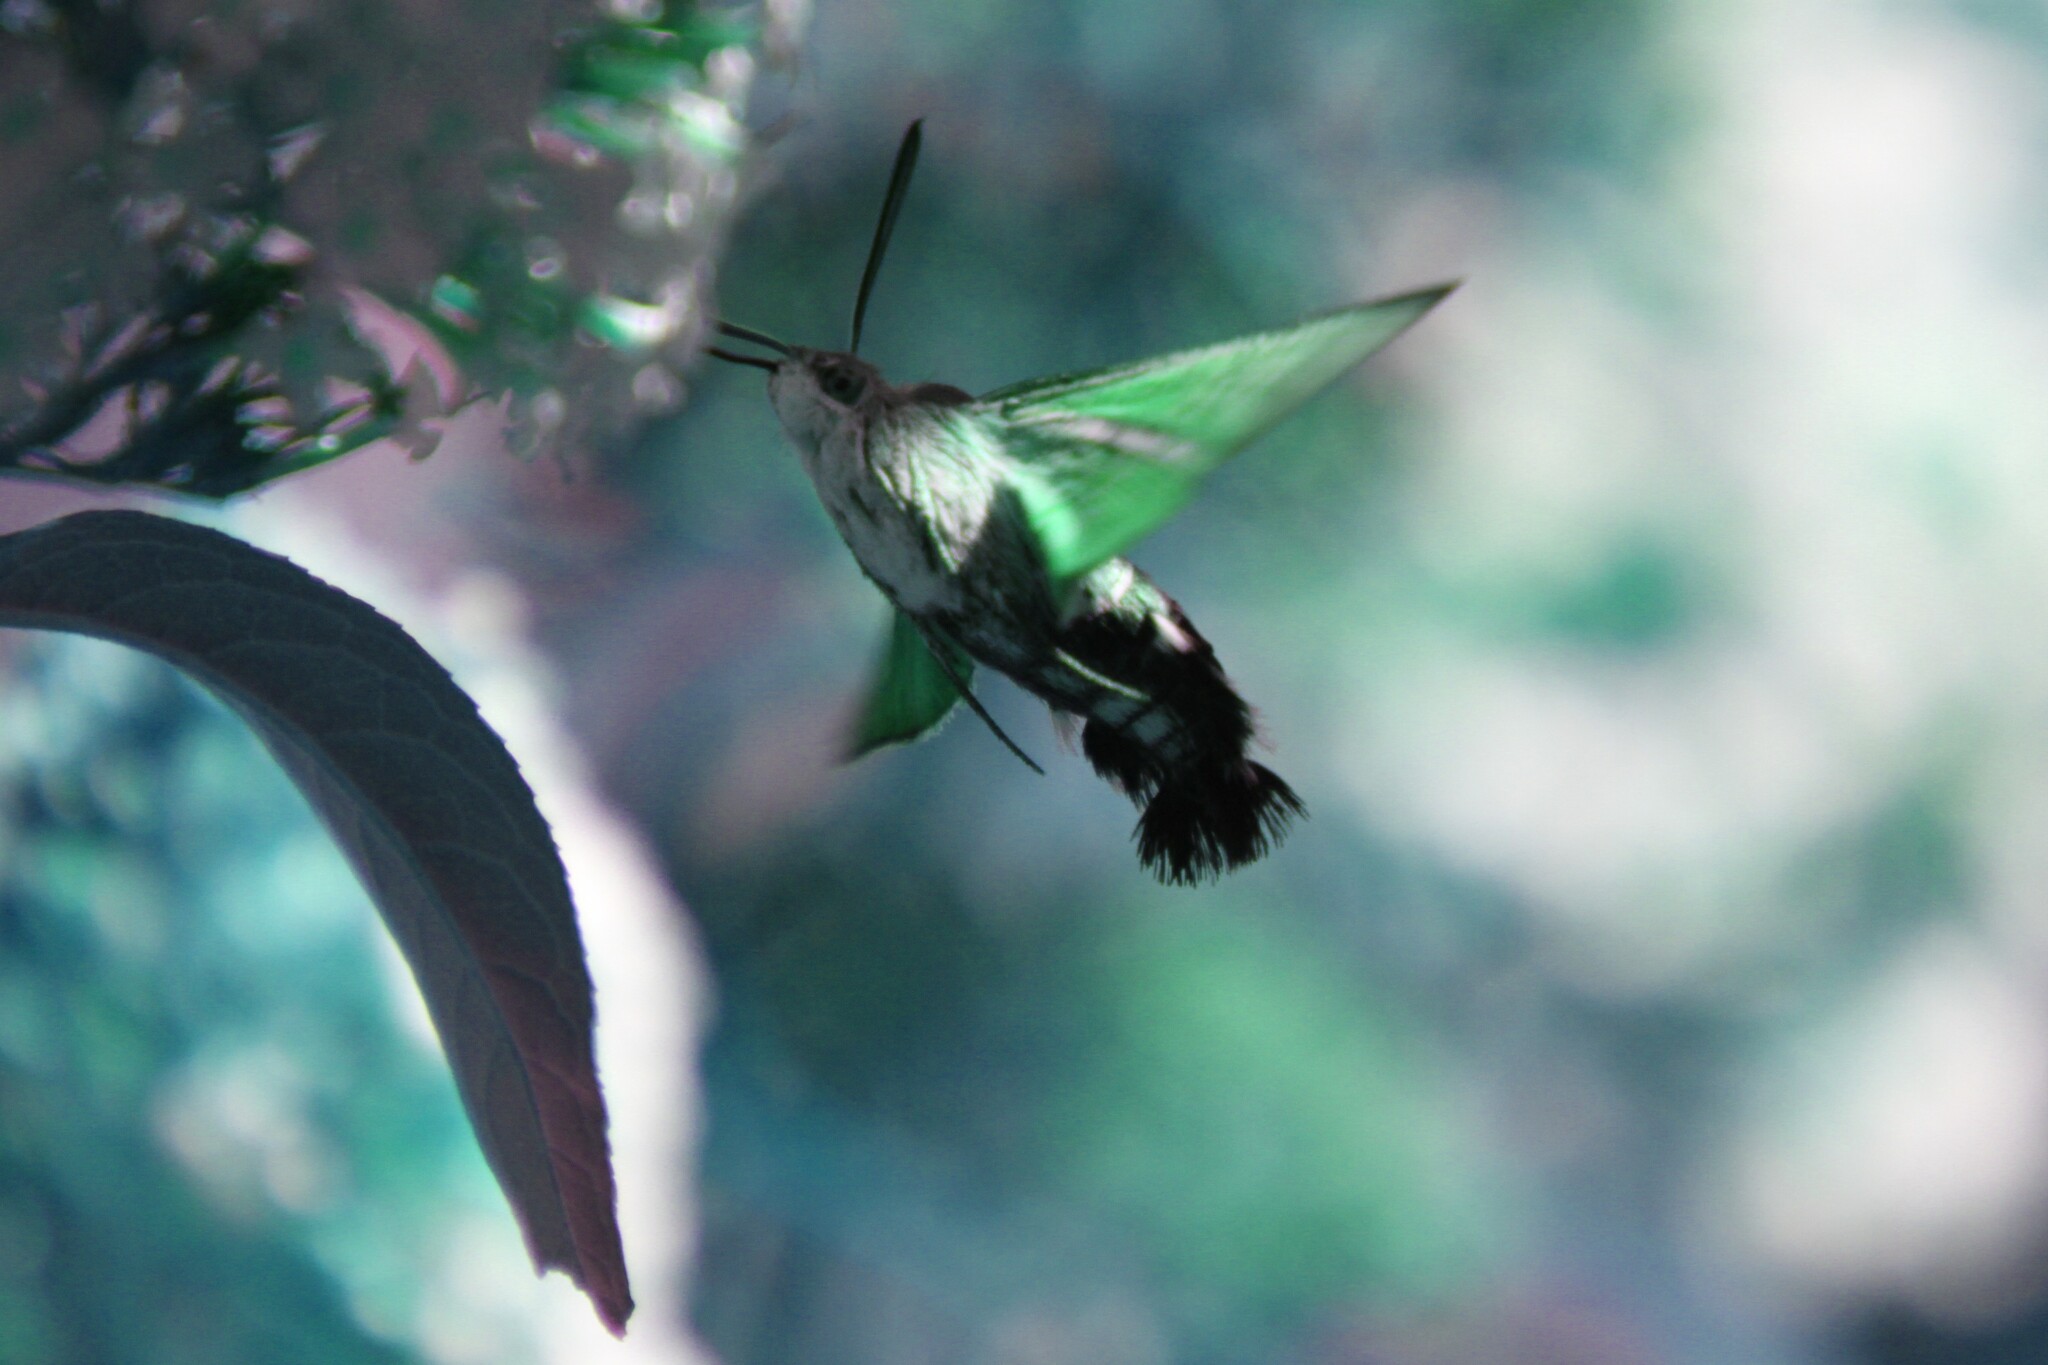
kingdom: Animalia
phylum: Arthropoda
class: Insecta
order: Lepidoptera
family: Sphingidae
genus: Macroglossum
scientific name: Macroglossum stellatarum
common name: Humming-bird hawk-moth
